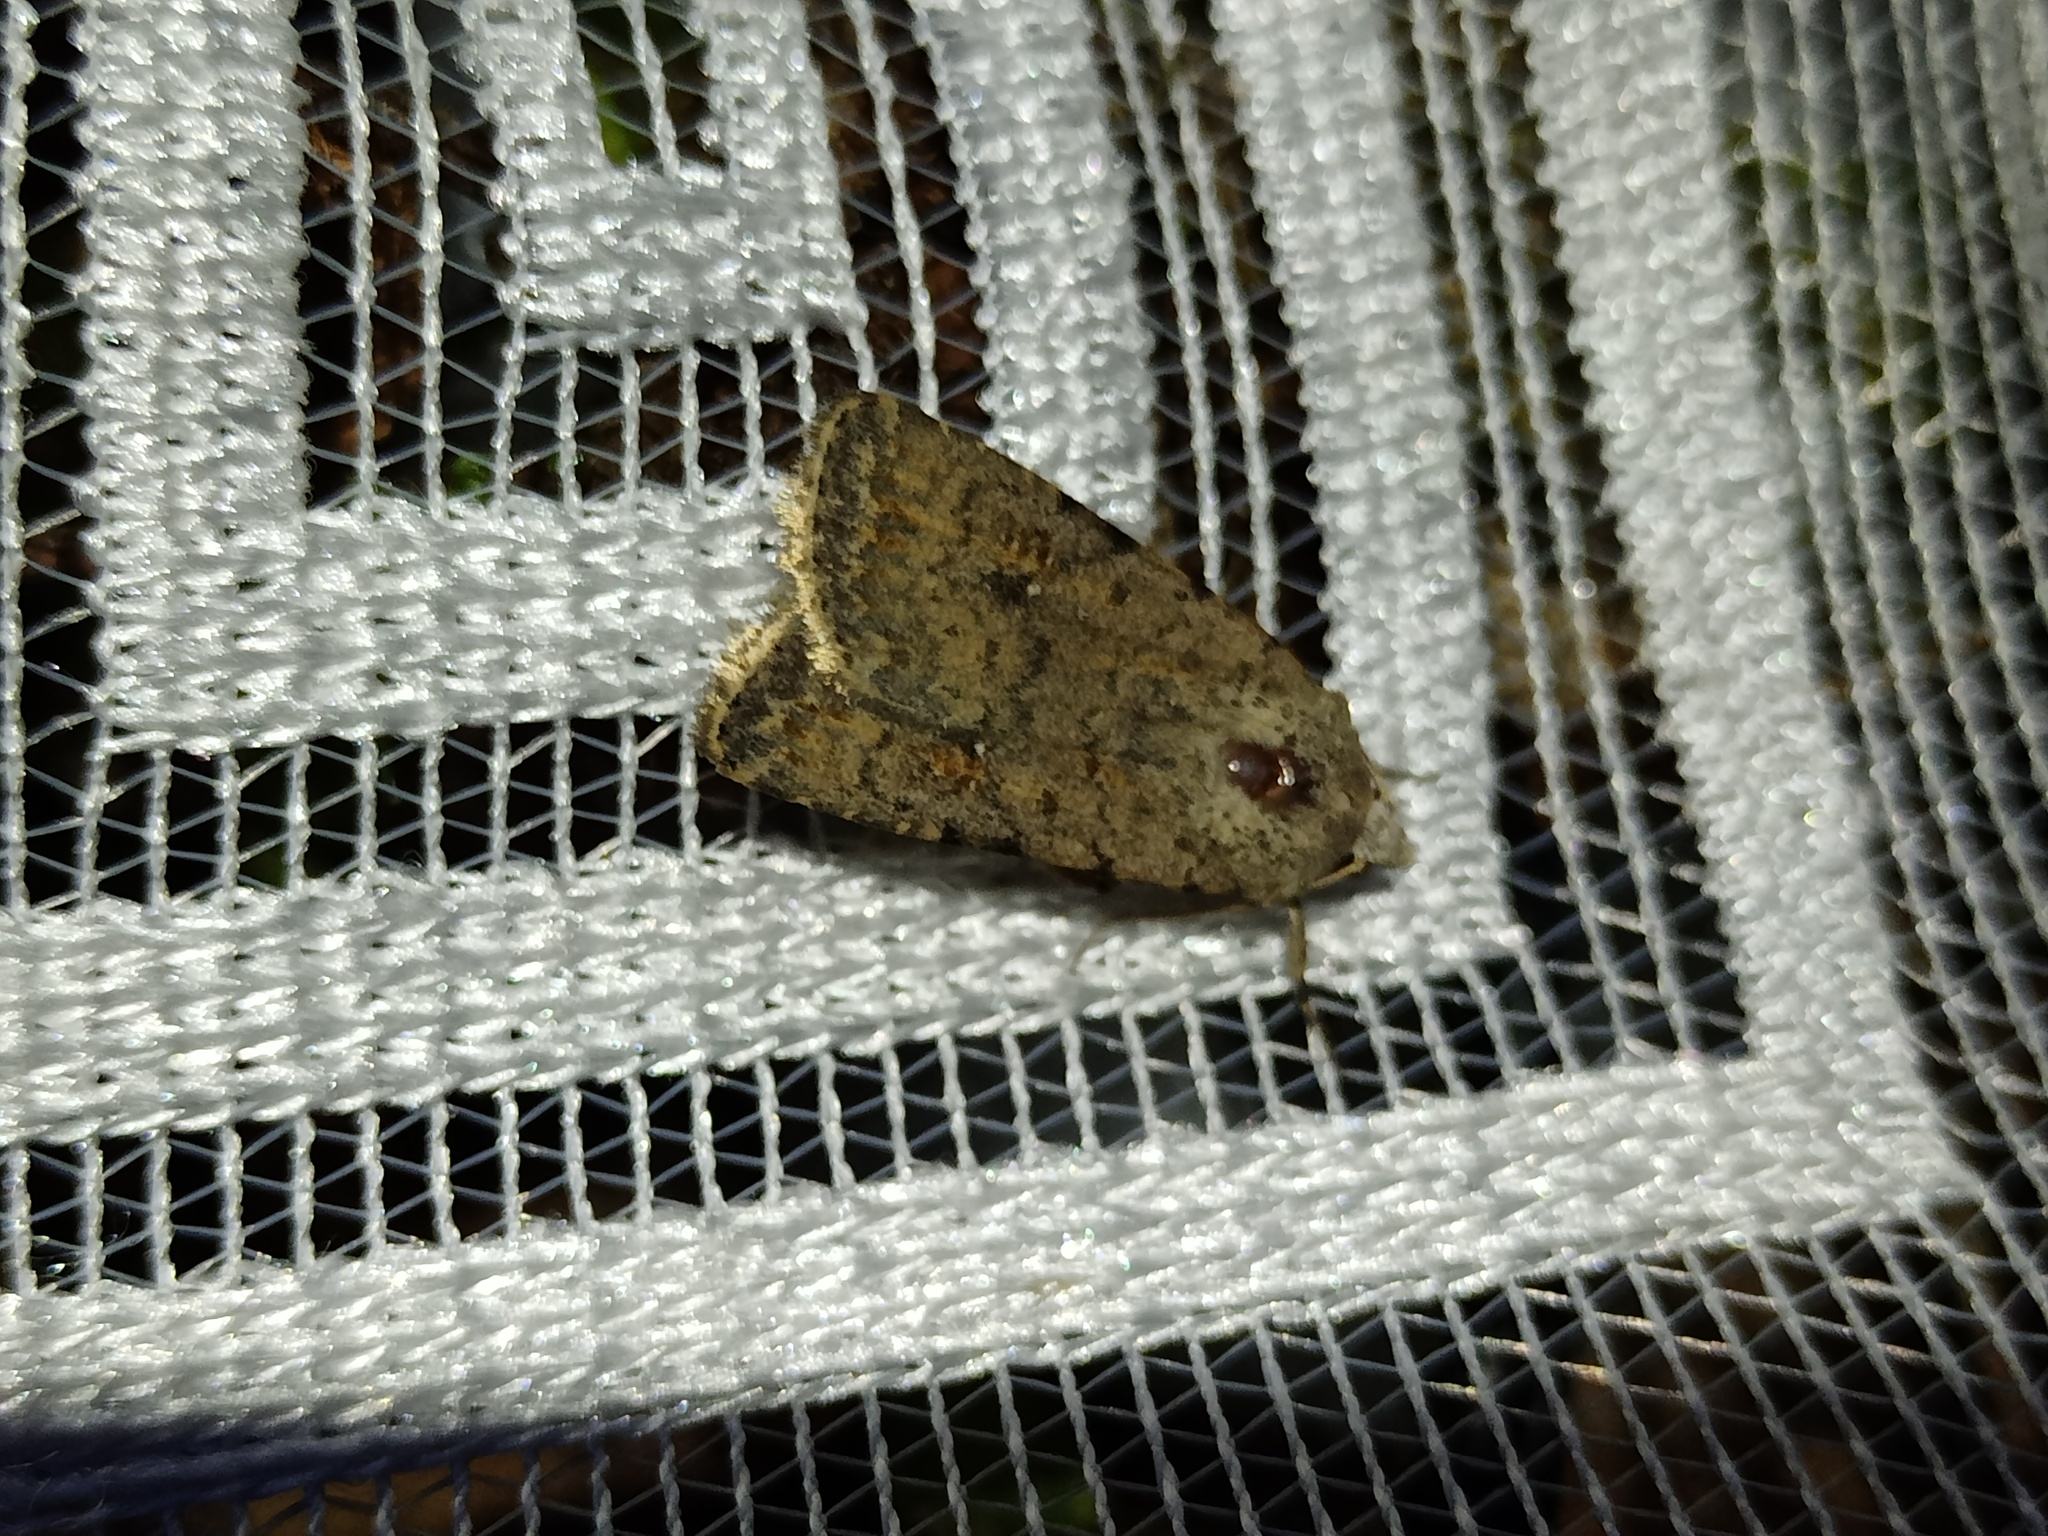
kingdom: Animalia
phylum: Arthropoda
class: Insecta
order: Lepidoptera
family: Noctuidae
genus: Caradrina
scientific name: Caradrina clavipalpis
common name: Pale mottled willow
